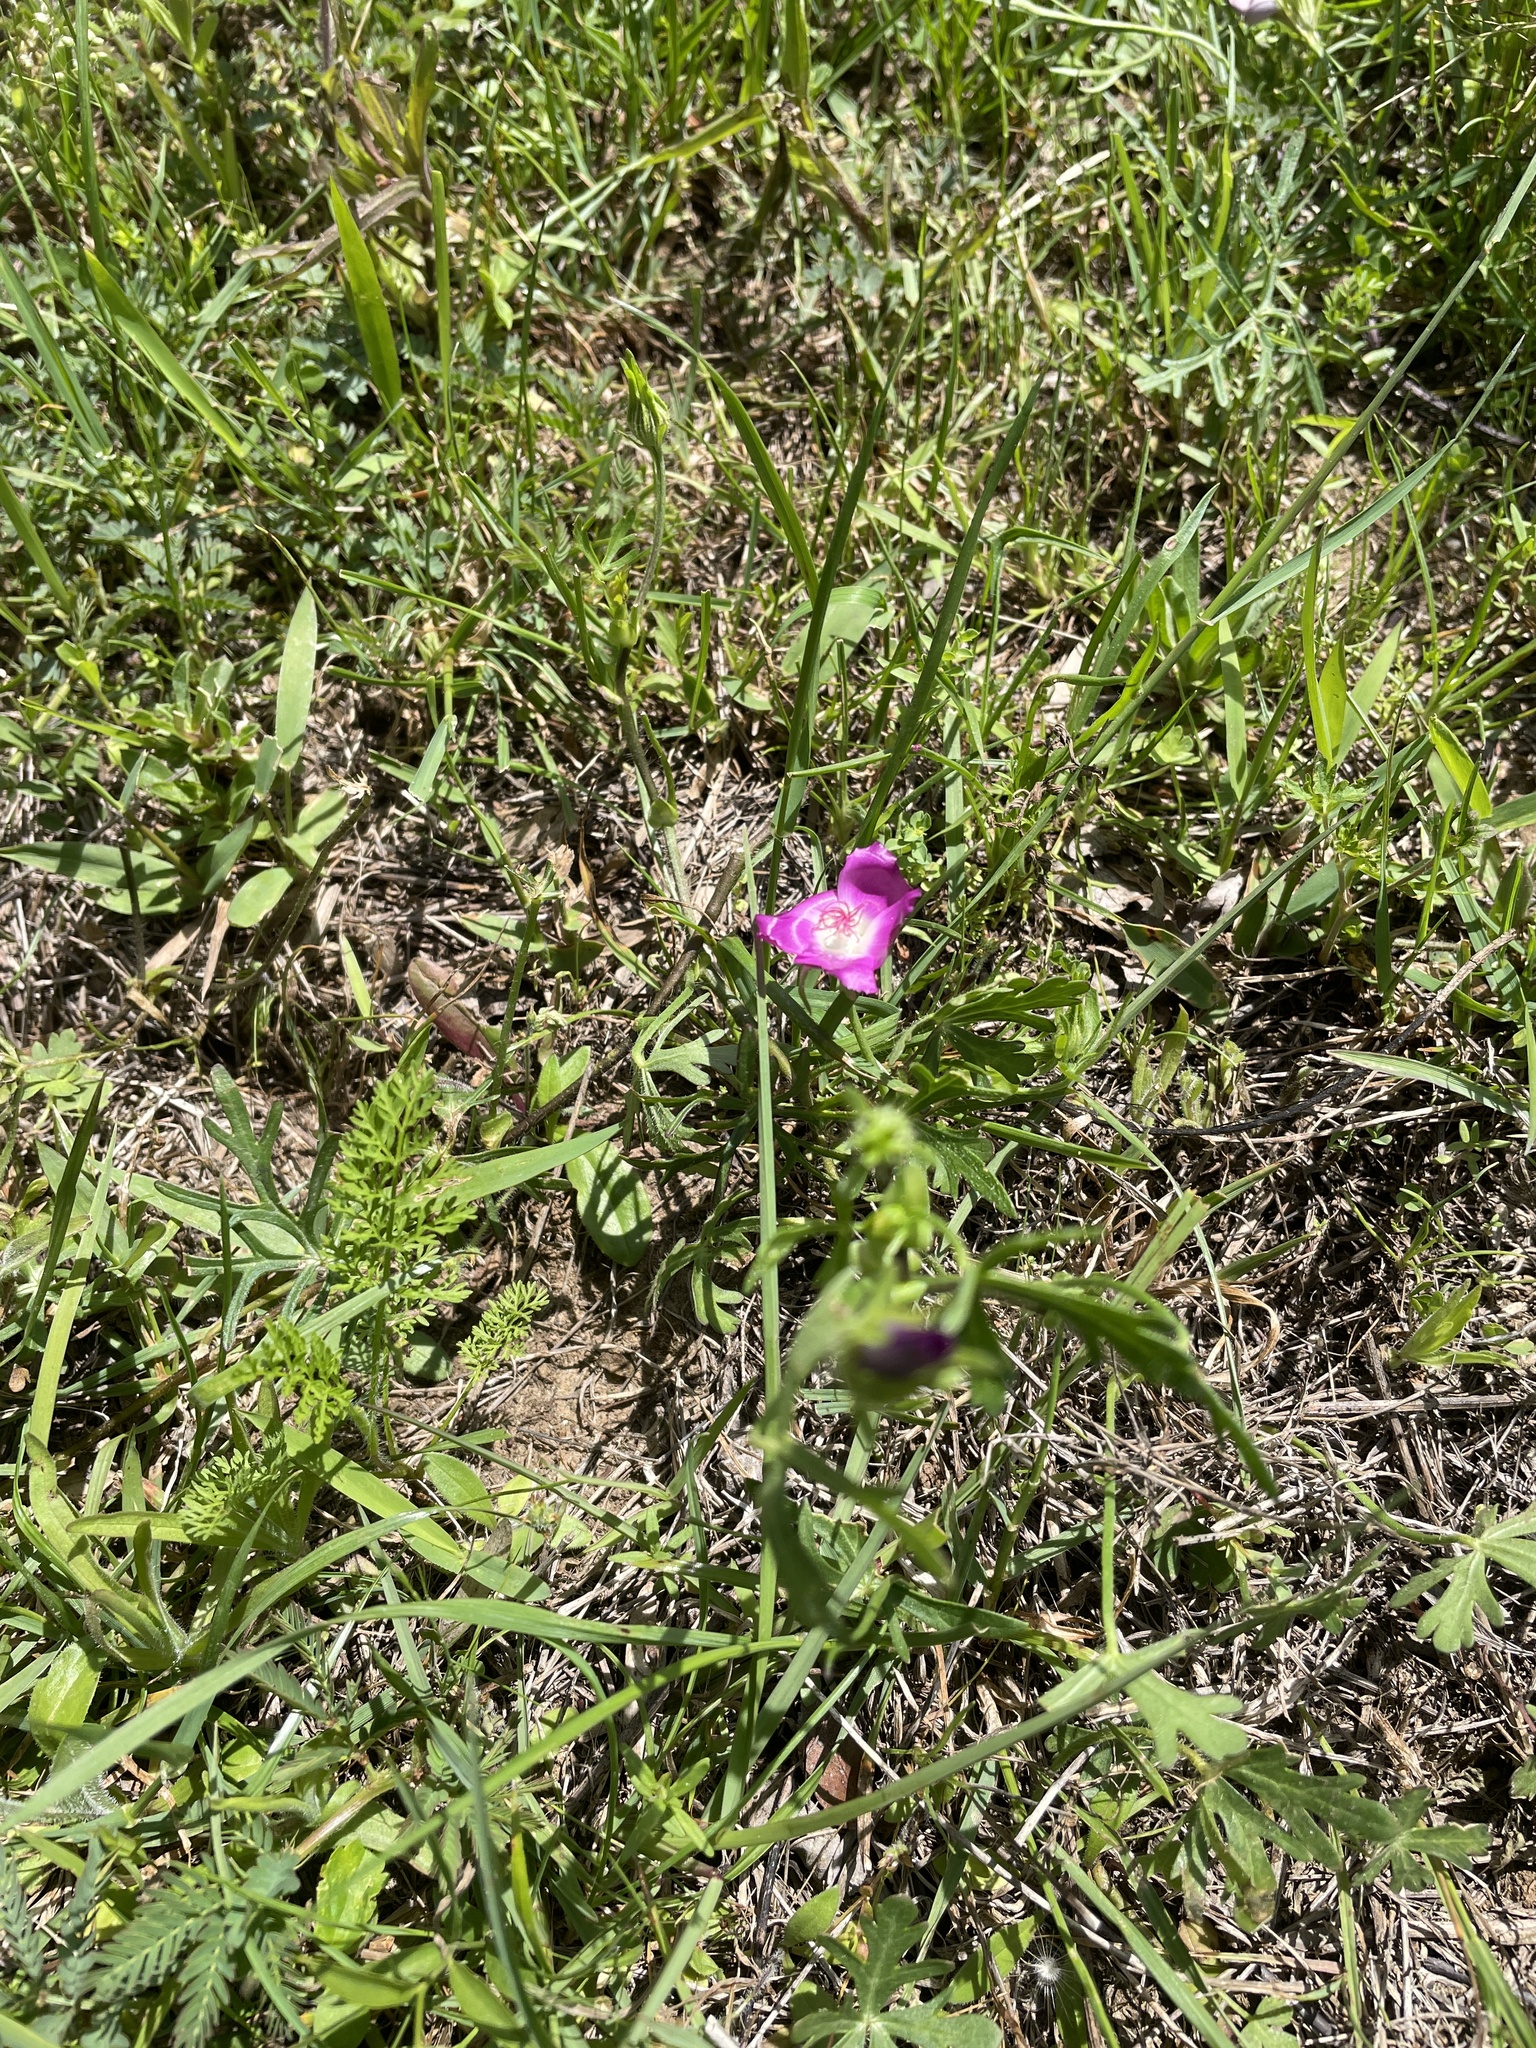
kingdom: Plantae
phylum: Tracheophyta
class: Magnoliopsida
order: Malvales
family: Malvaceae
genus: Callirhoe
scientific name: Callirhoe involucrata
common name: Purple poppy-mallow
